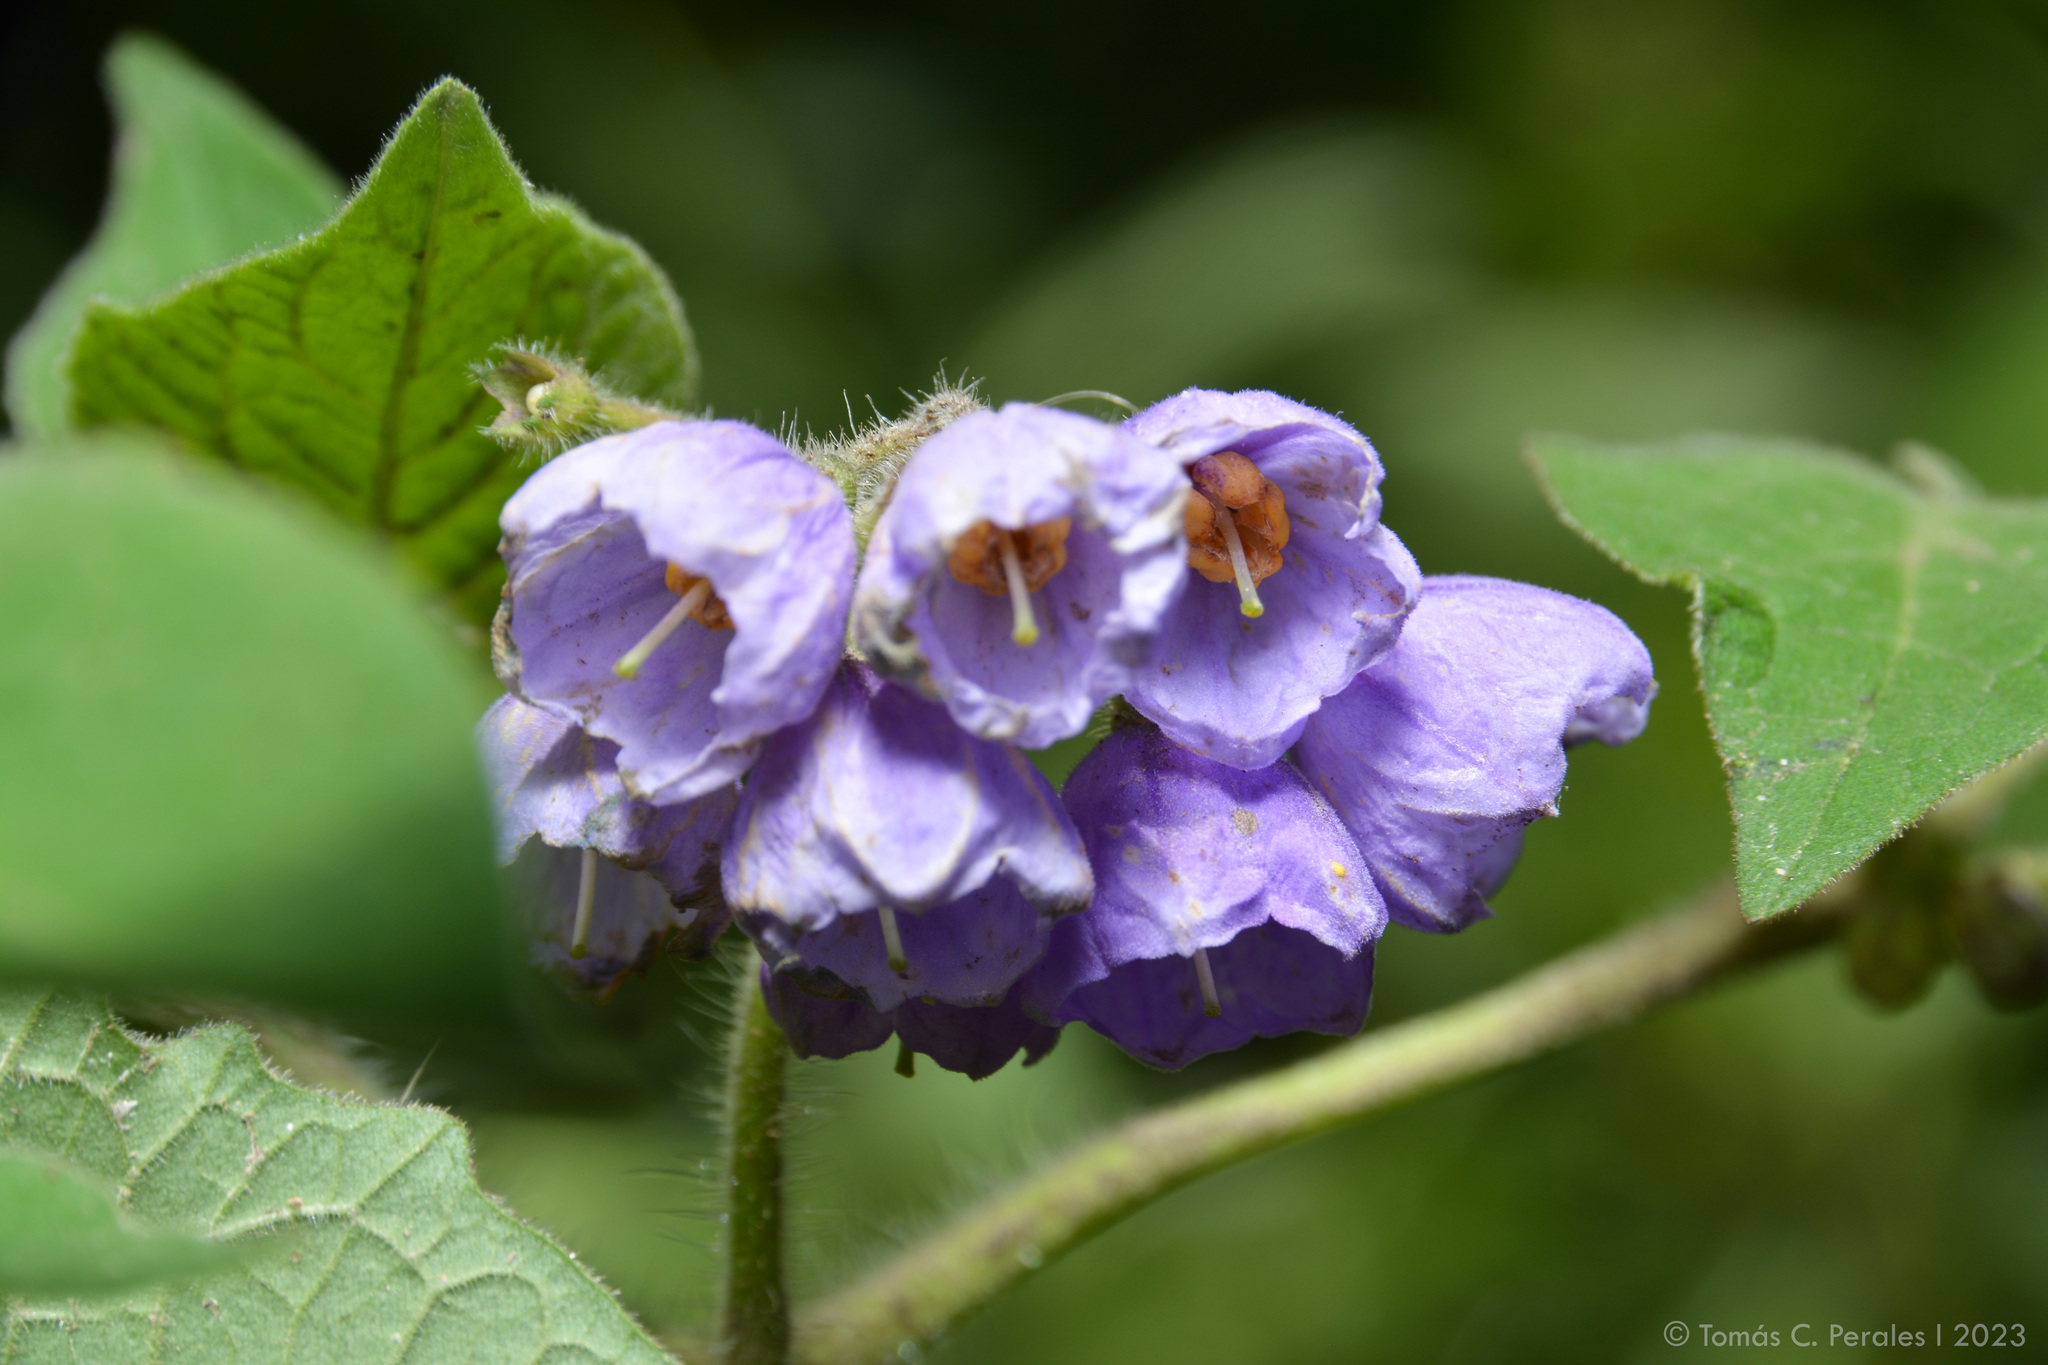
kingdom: Plantae
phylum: Tracheophyta
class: Magnoliopsida
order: Solanales
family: Solanaceae
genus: Solanum
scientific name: Solanum fiebrigii
